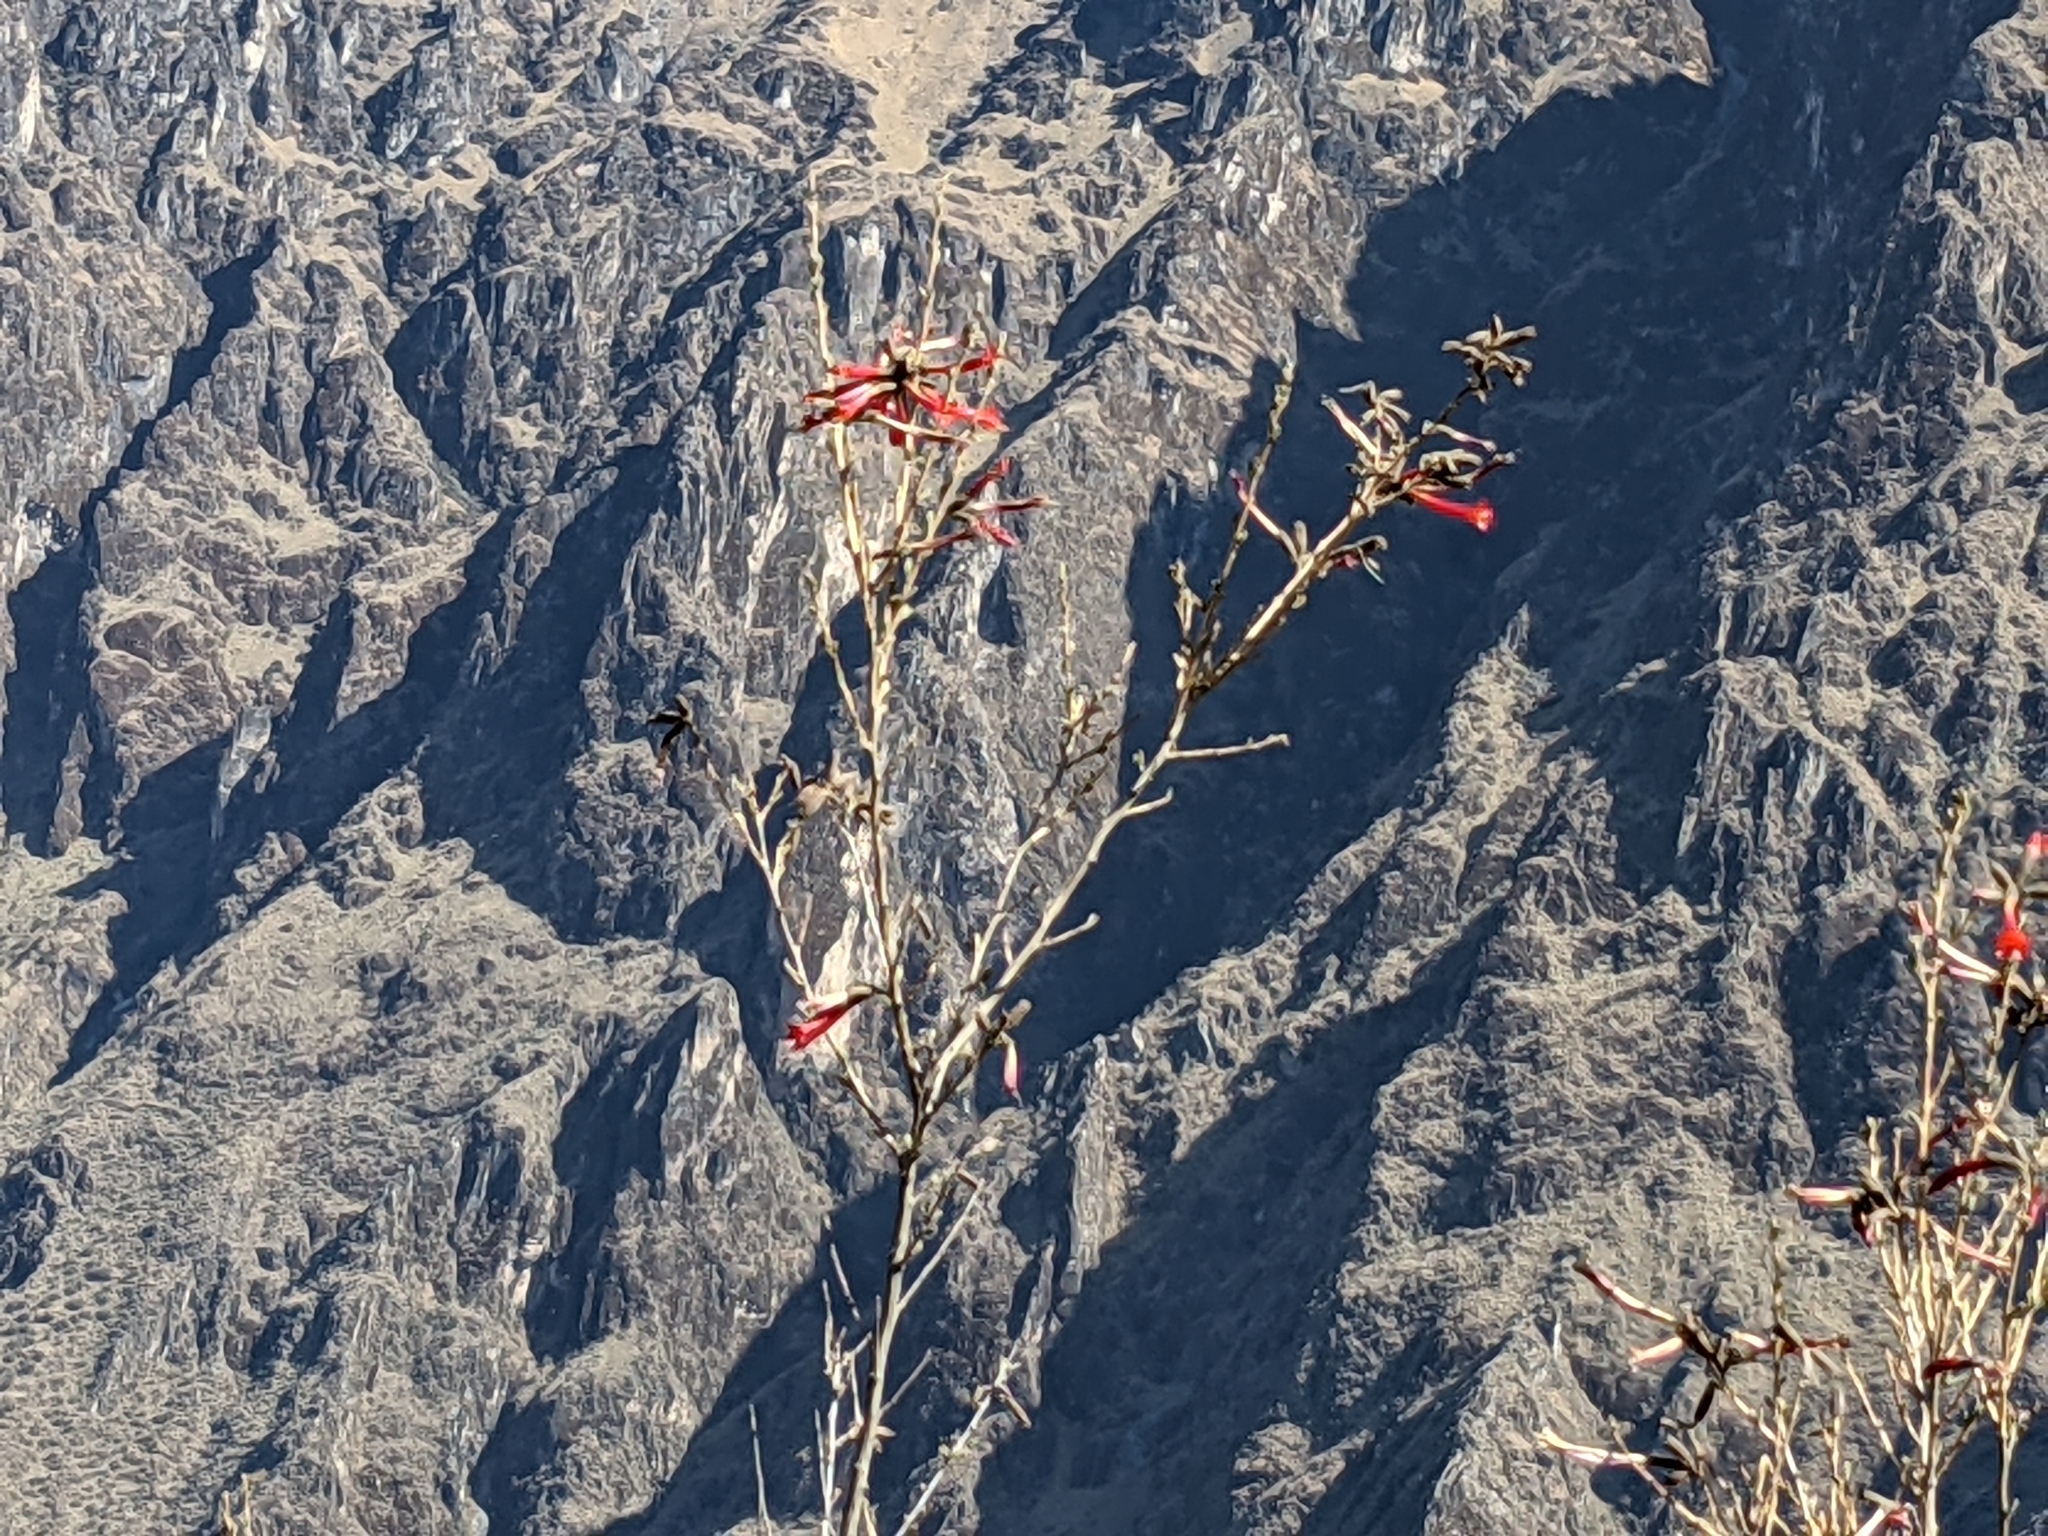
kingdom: Plantae
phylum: Tracheophyta
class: Magnoliopsida
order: Ericales
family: Polemoniaceae
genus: Cantua
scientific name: Cantua buxifolia
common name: Sacred-flower-of-the-incas
